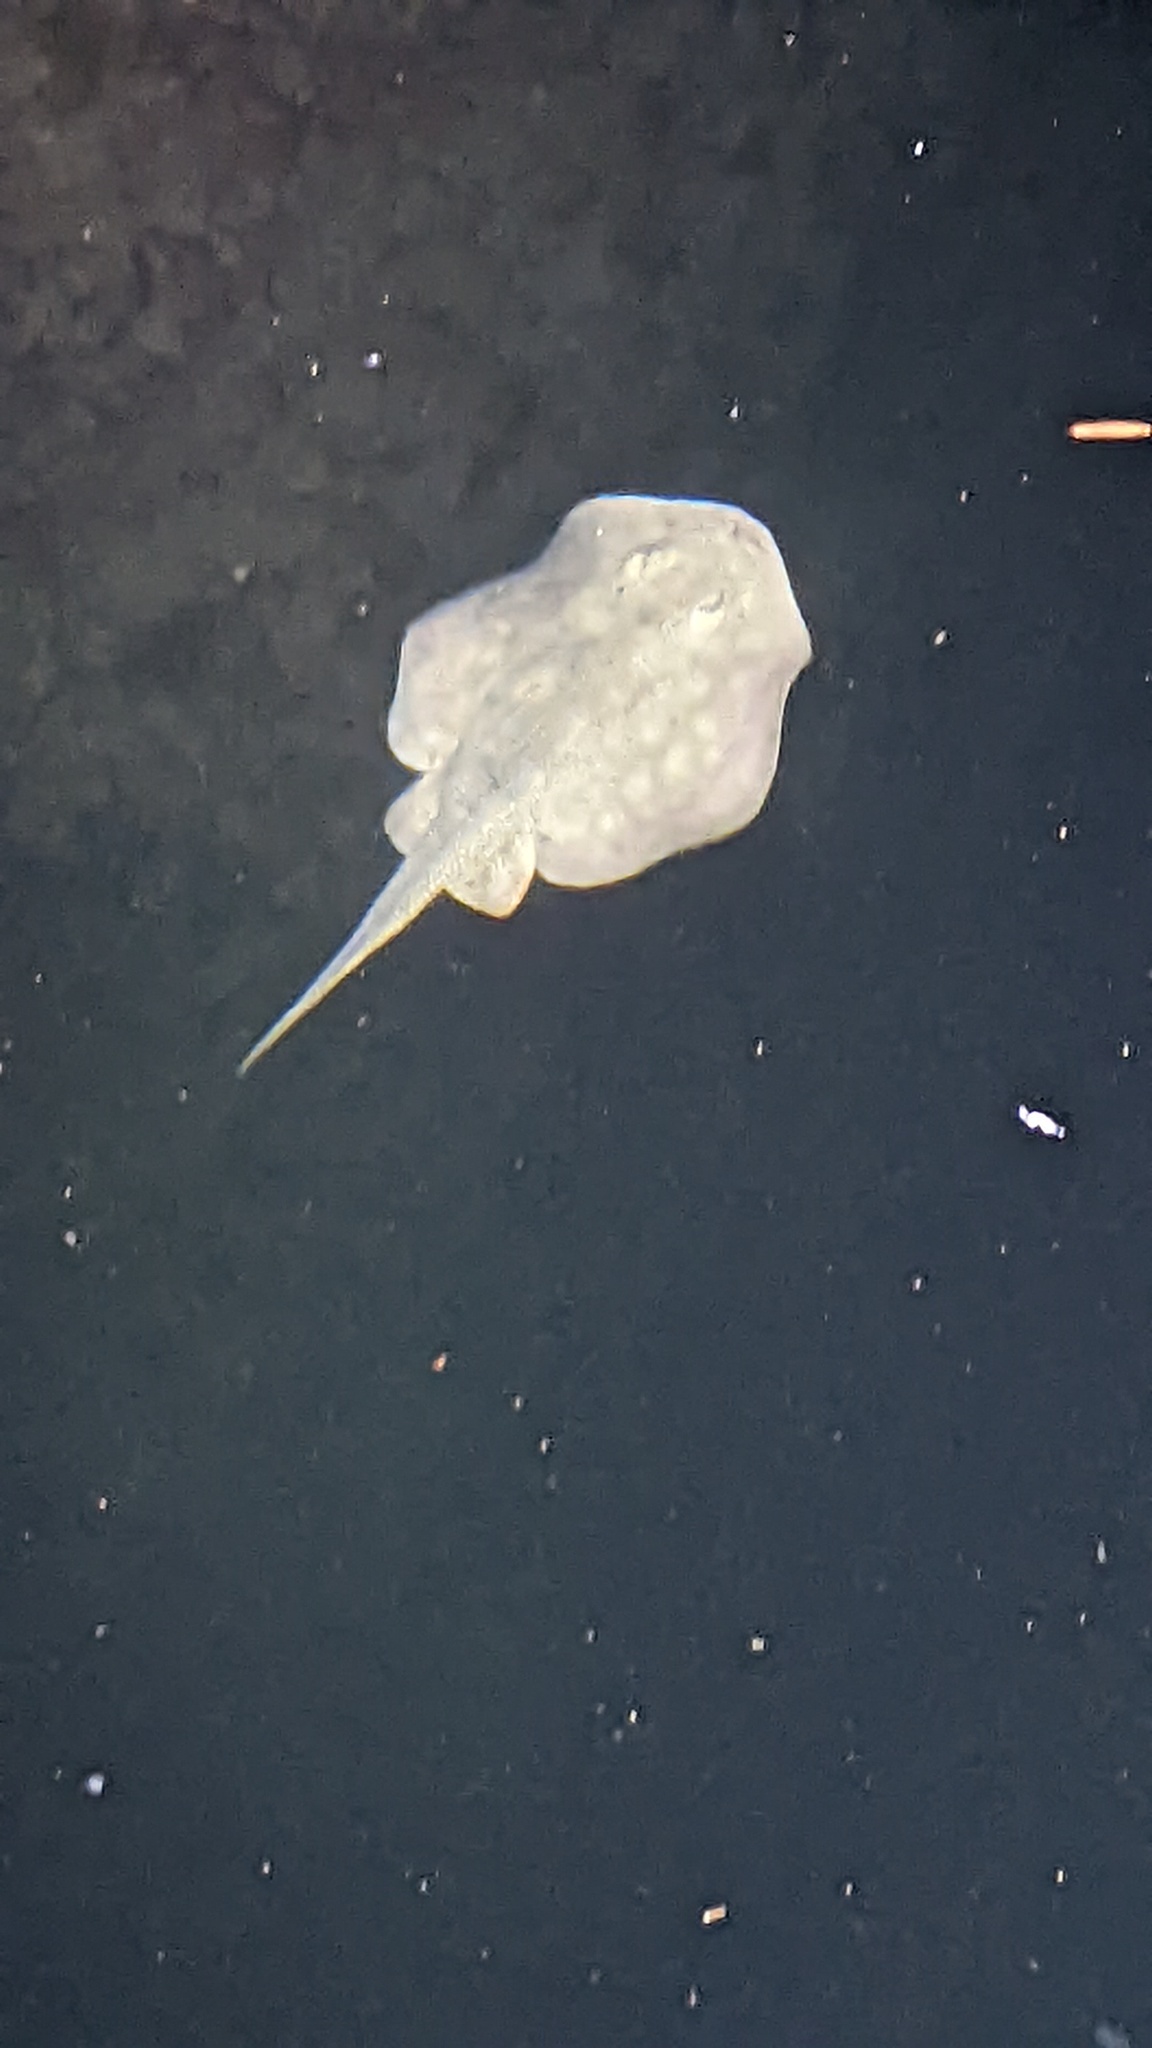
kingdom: Animalia
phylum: Chordata
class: Elasmobranchii
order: Myliobatiformes
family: Urolophidae
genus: Urolophus
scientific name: Urolophus halleri
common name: Round stingray
